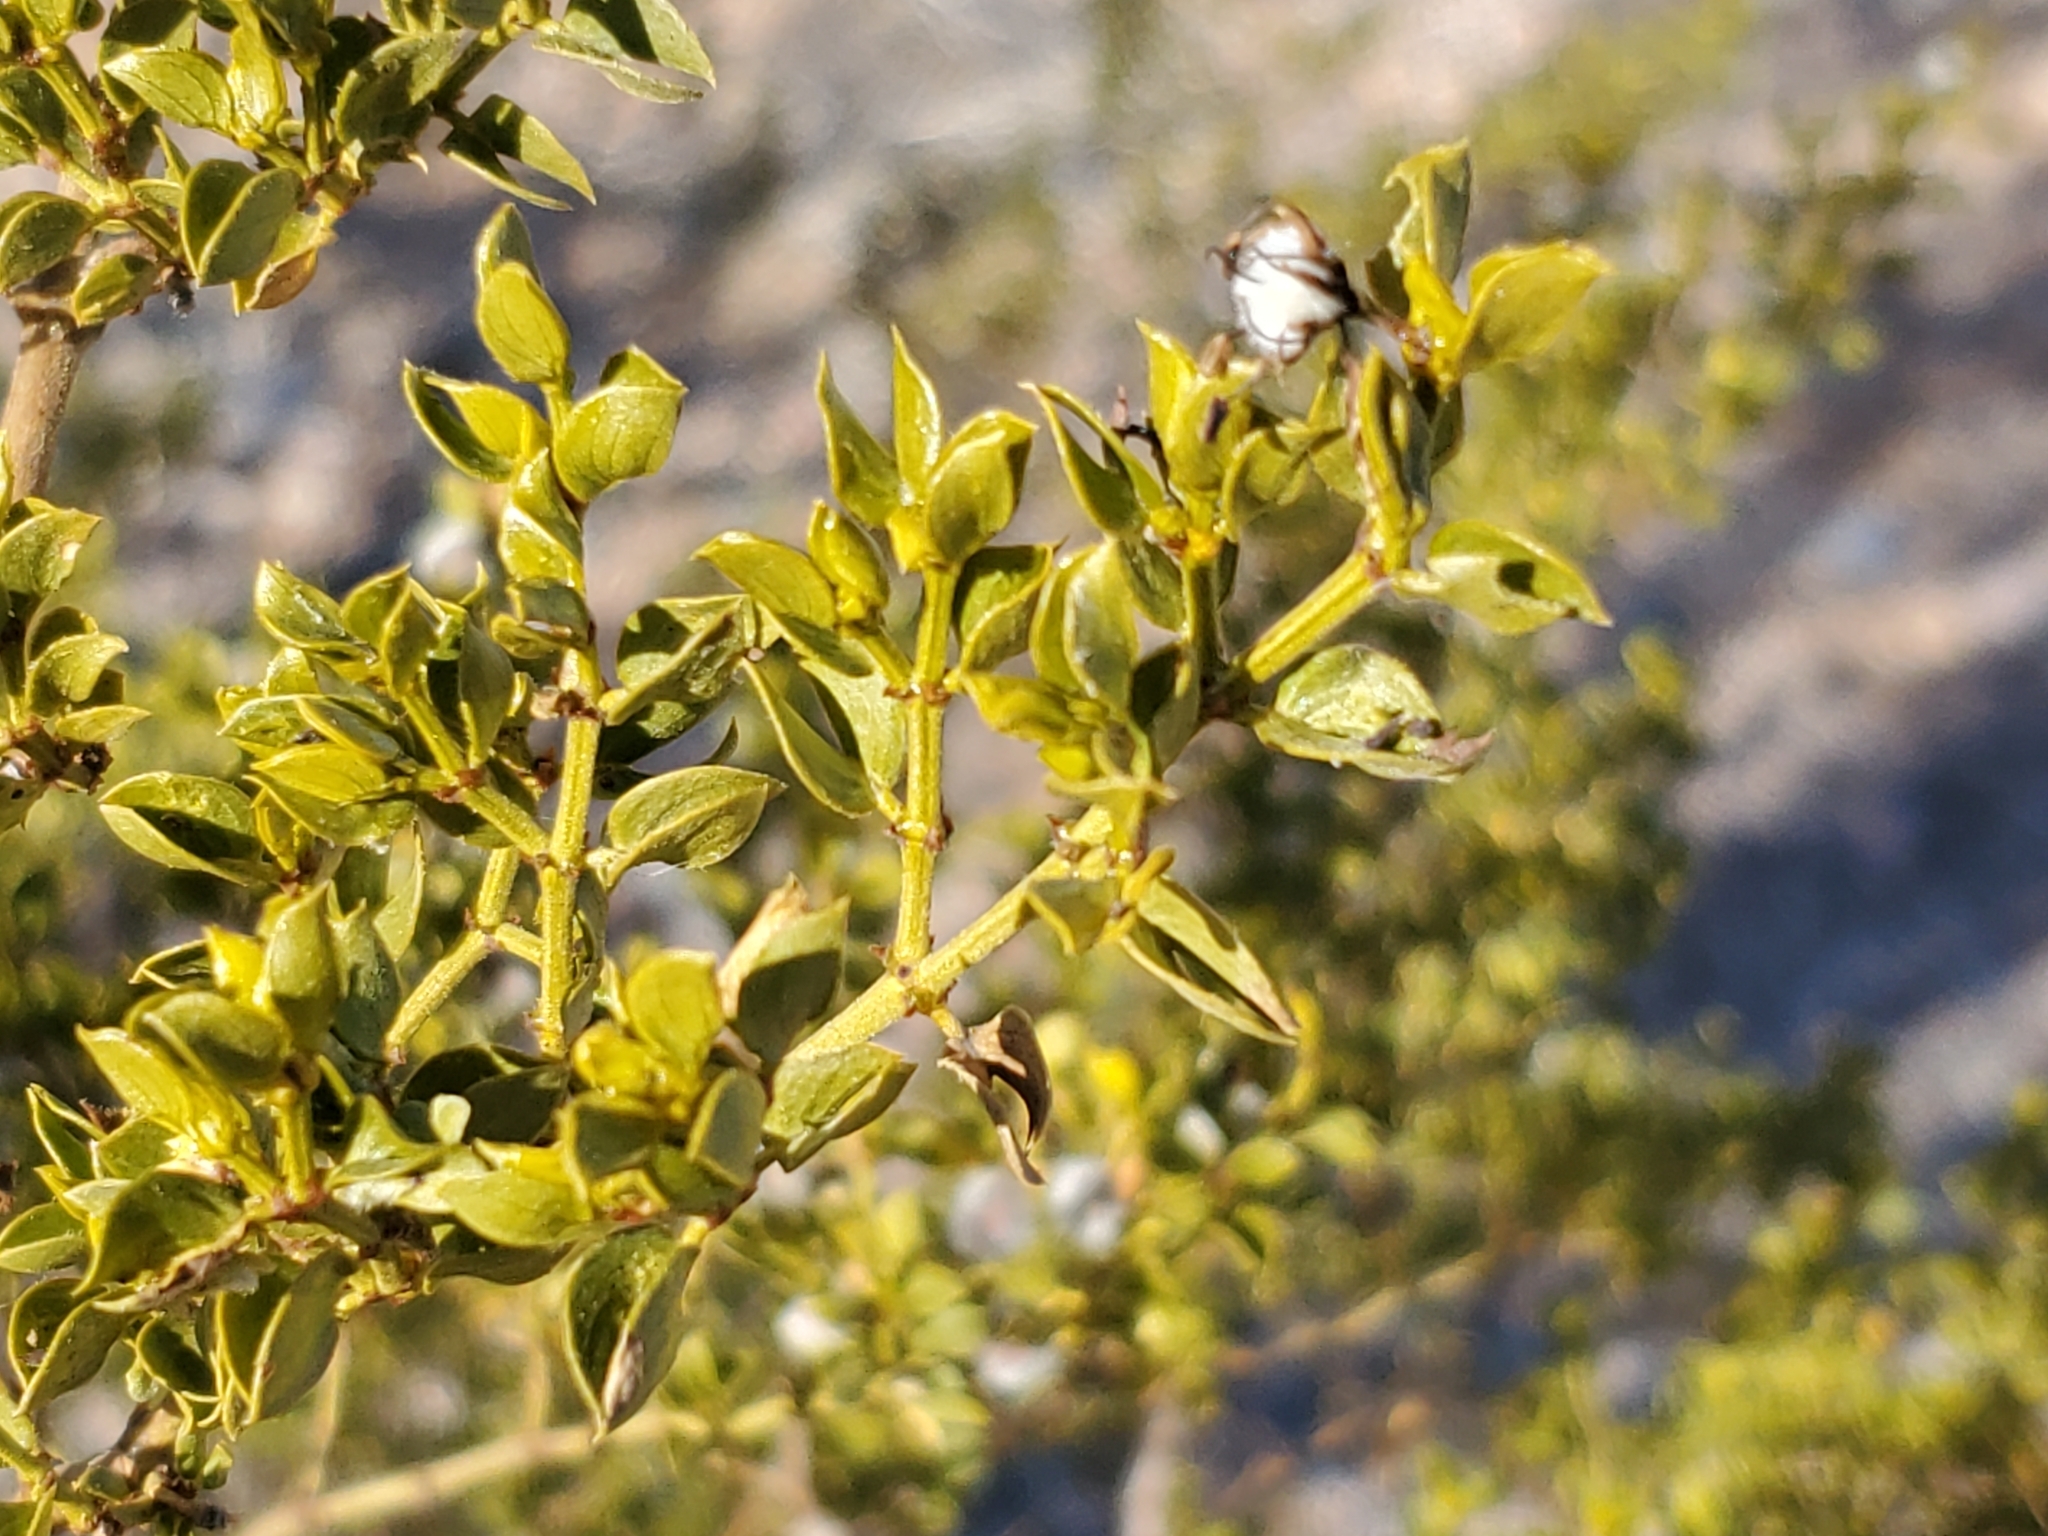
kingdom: Plantae
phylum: Tracheophyta
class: Magnoliopsida
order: Zygophyllales
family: Zygophyllaceae
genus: Larrea
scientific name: Larrea tridentata
